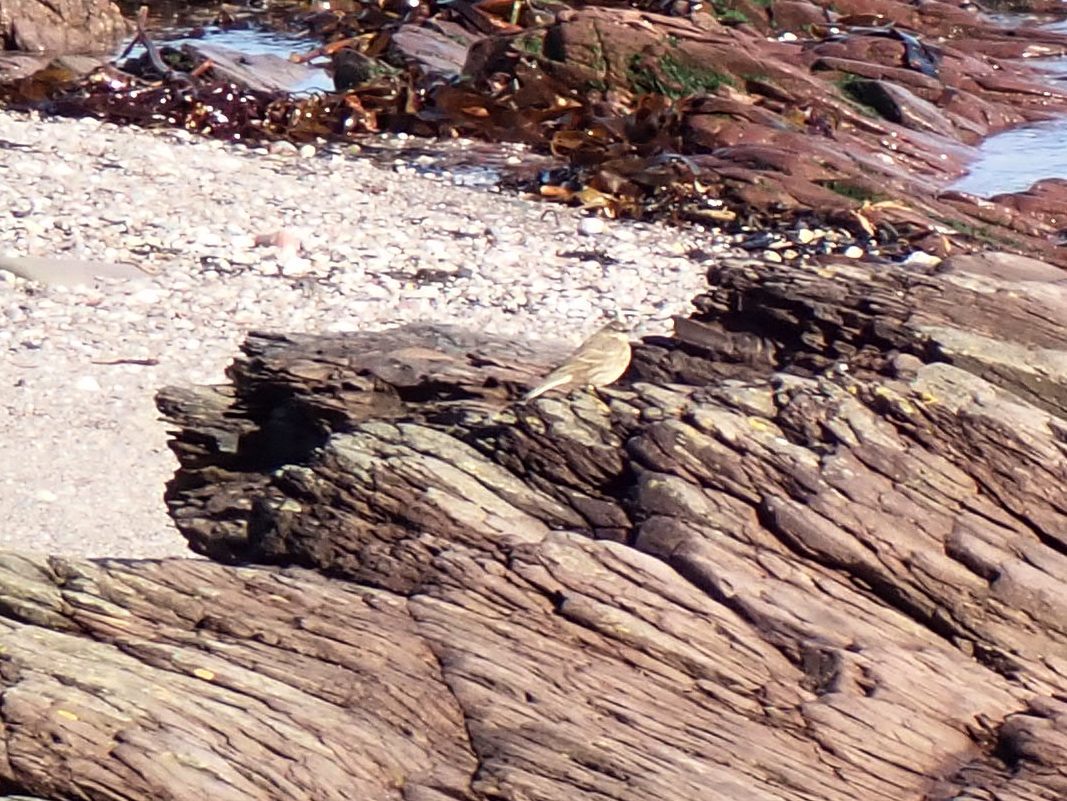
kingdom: Animalia
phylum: Chordata
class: Aves
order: Passeriformes
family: Motacillidae
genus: Anthus
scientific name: Anthus petrosus
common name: Eurasian rock pipit
